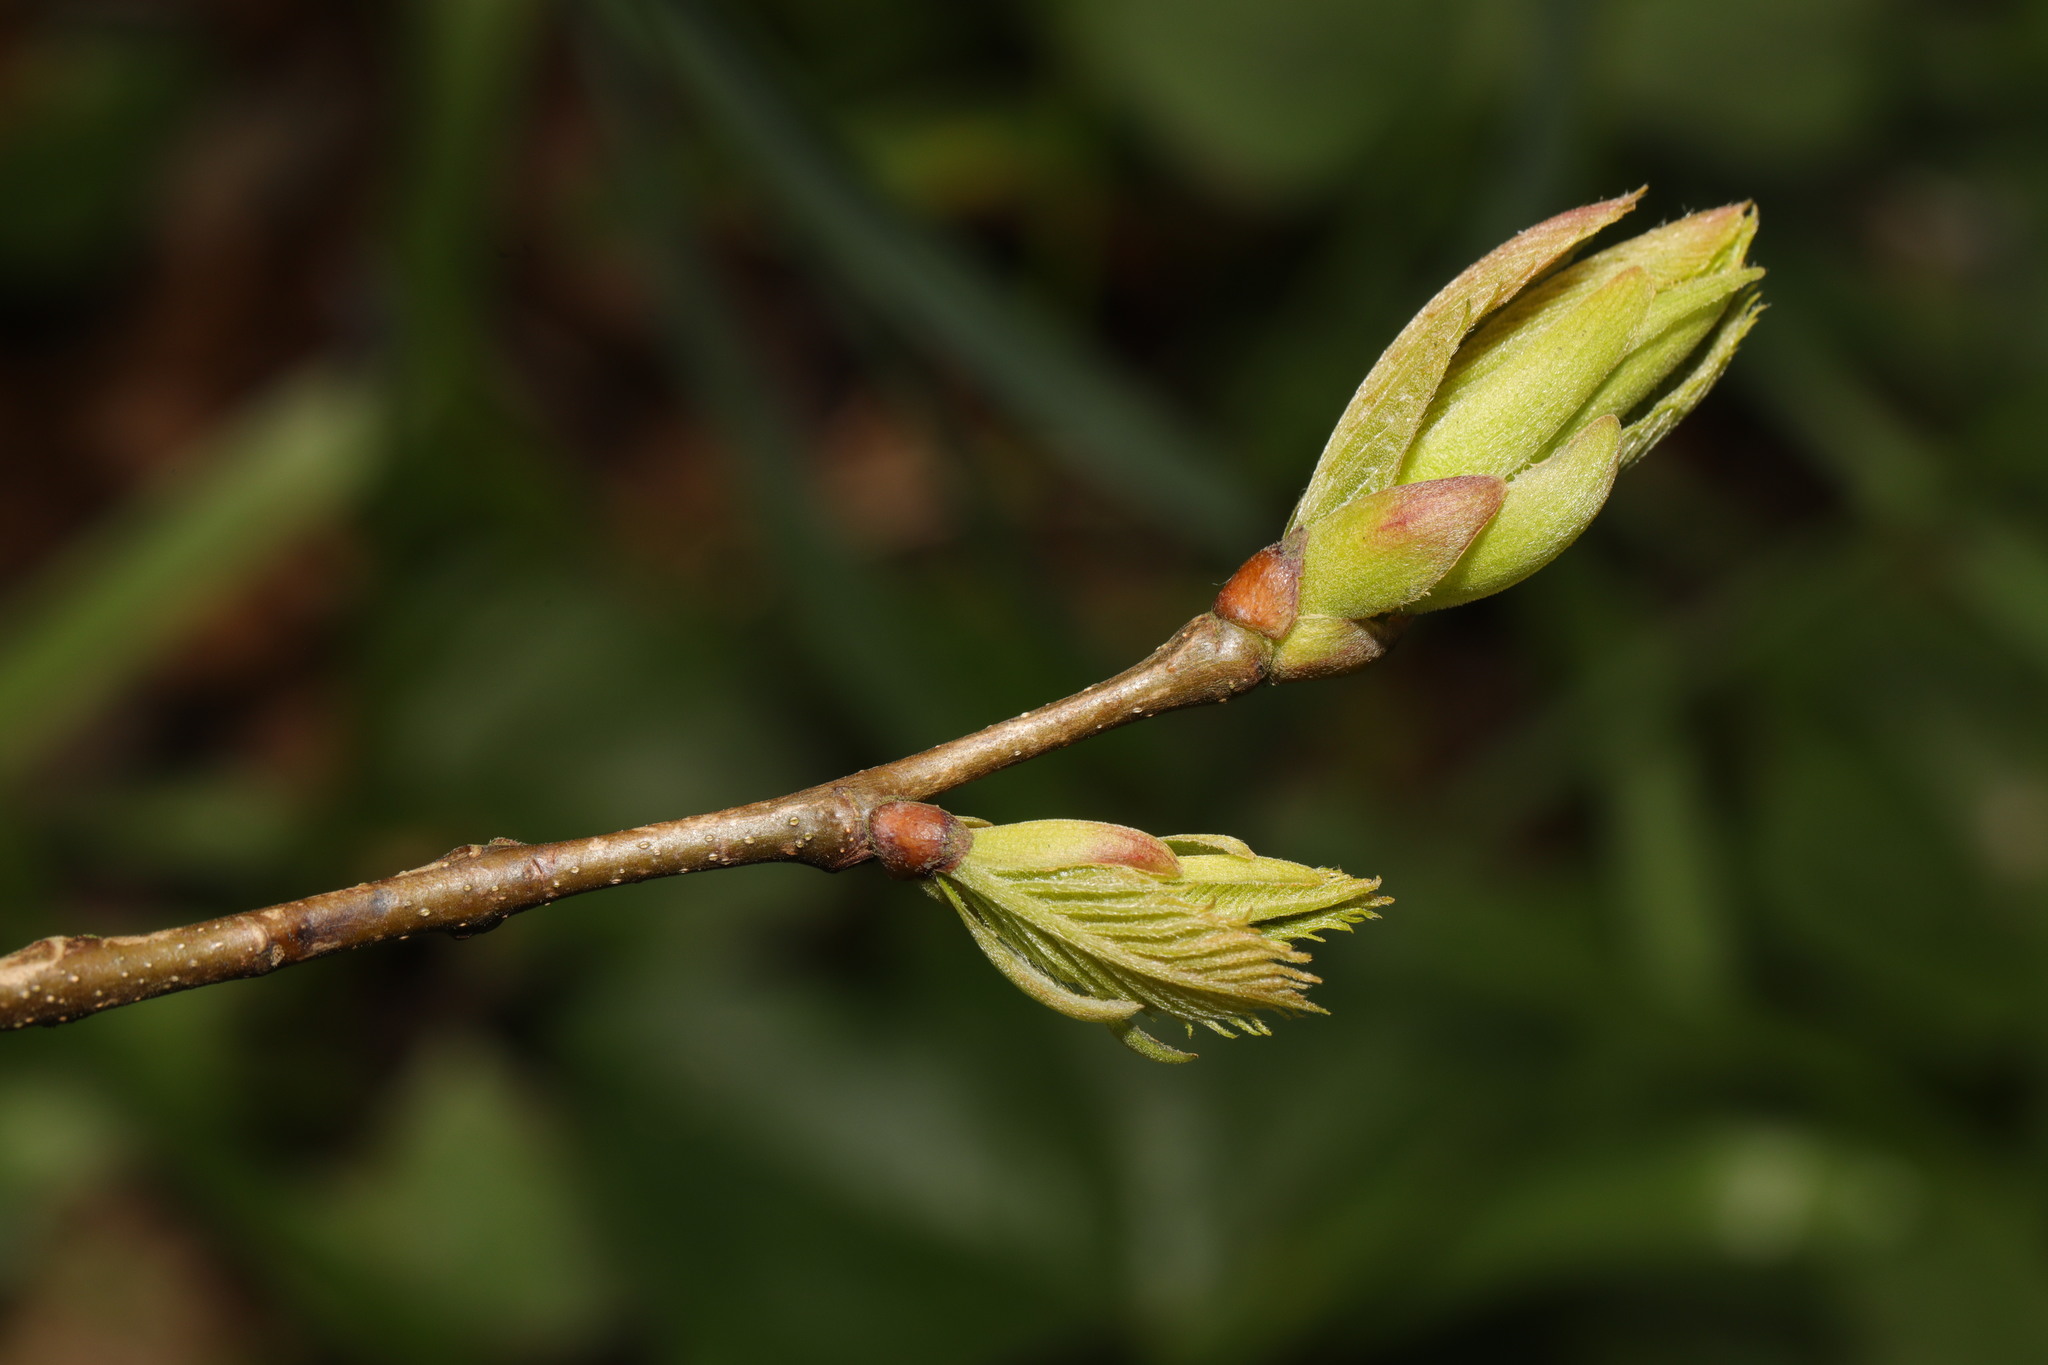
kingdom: Plantae
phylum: Tracheophyta
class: Magnoliopsida
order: Sapindales
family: Sapindaceae
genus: Acer
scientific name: Acer pseudoplatanus
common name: Sycamore
